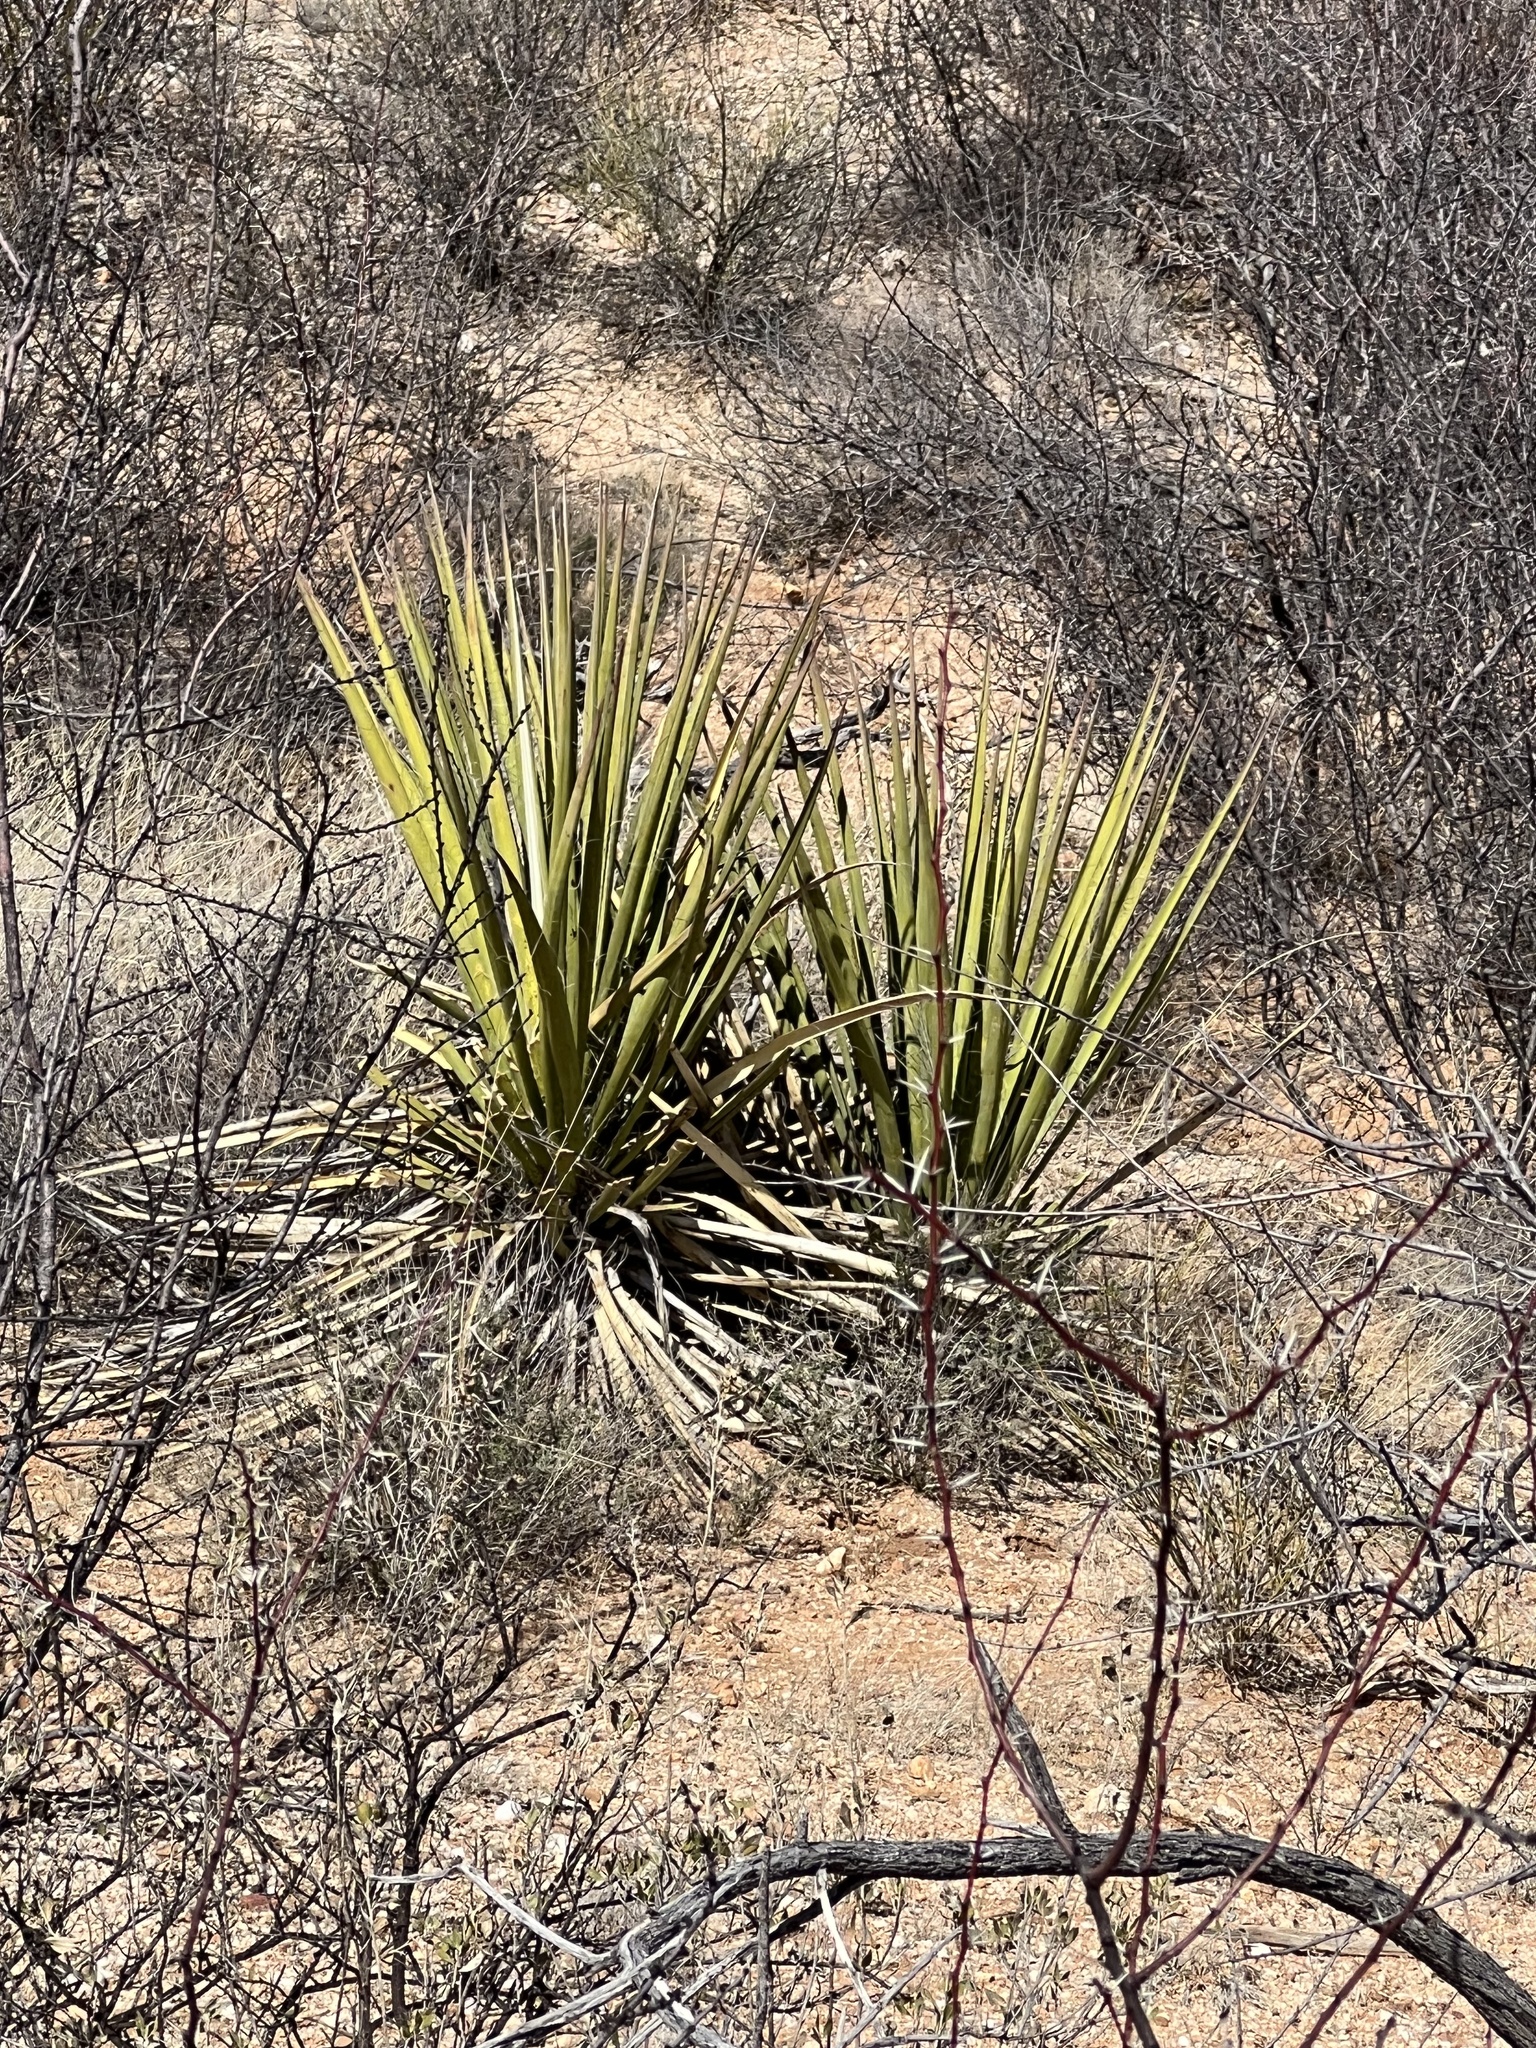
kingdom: Plantae
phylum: Tracheophyta
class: Liliopsida
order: Asparagales
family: Asparagaceae
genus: Yucca
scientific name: Yucca baccata
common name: Banana yucca
